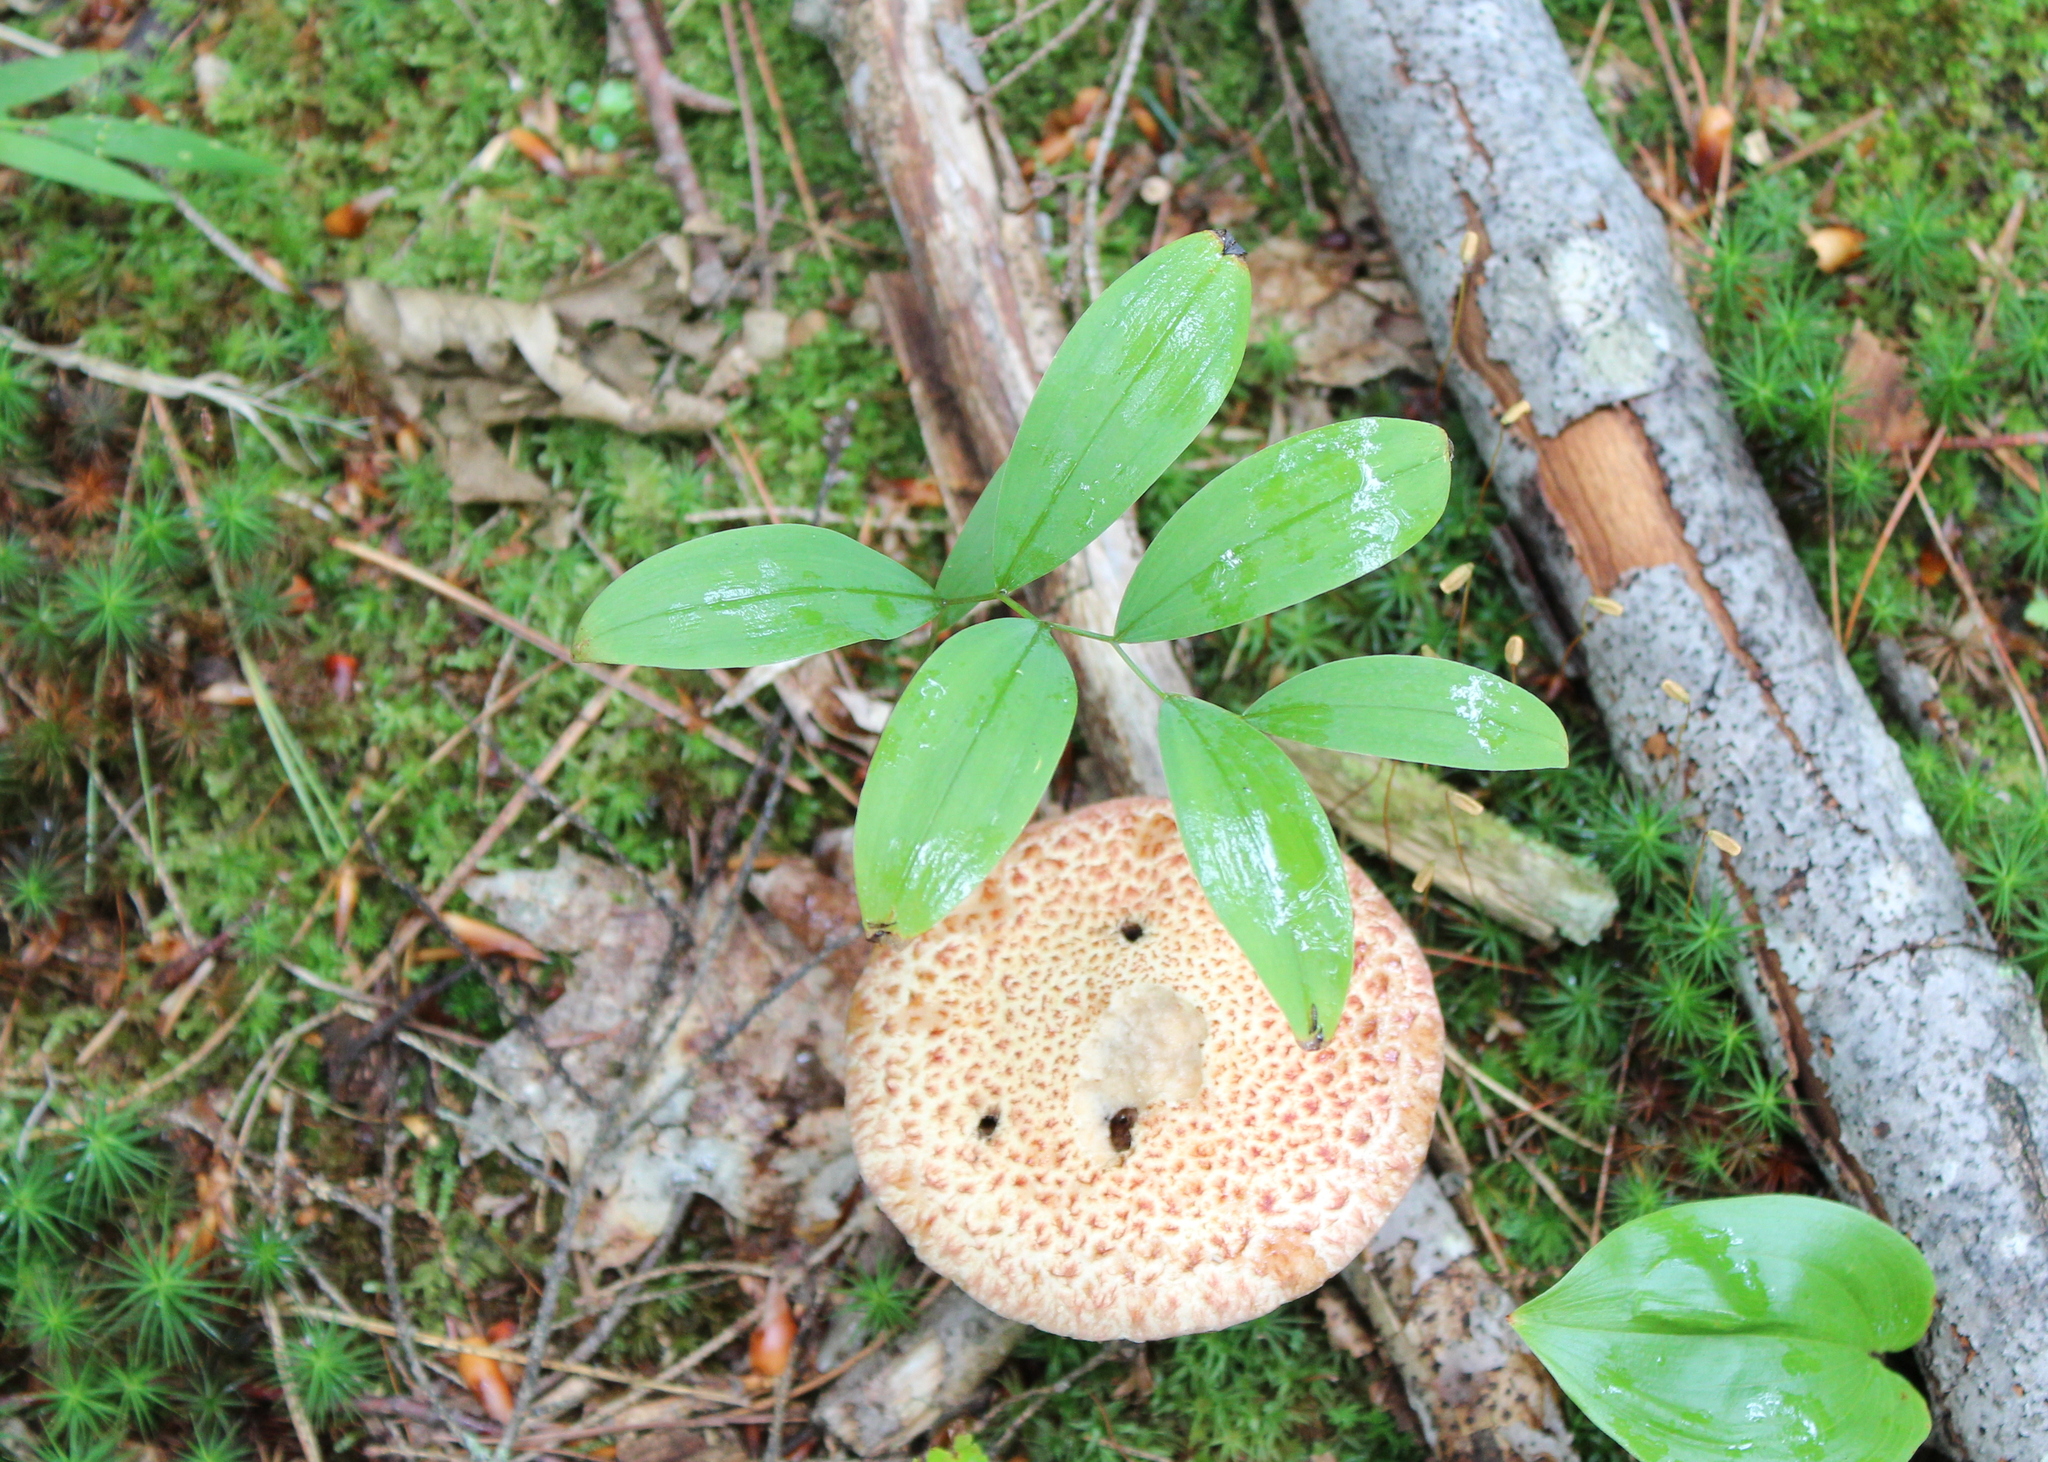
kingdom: Fungi
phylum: Basidiomycota
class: Agaricomycetes
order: Boletales
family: Suillaceae
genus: Suillus
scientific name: Suillus spraguei
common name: Painted suillus
